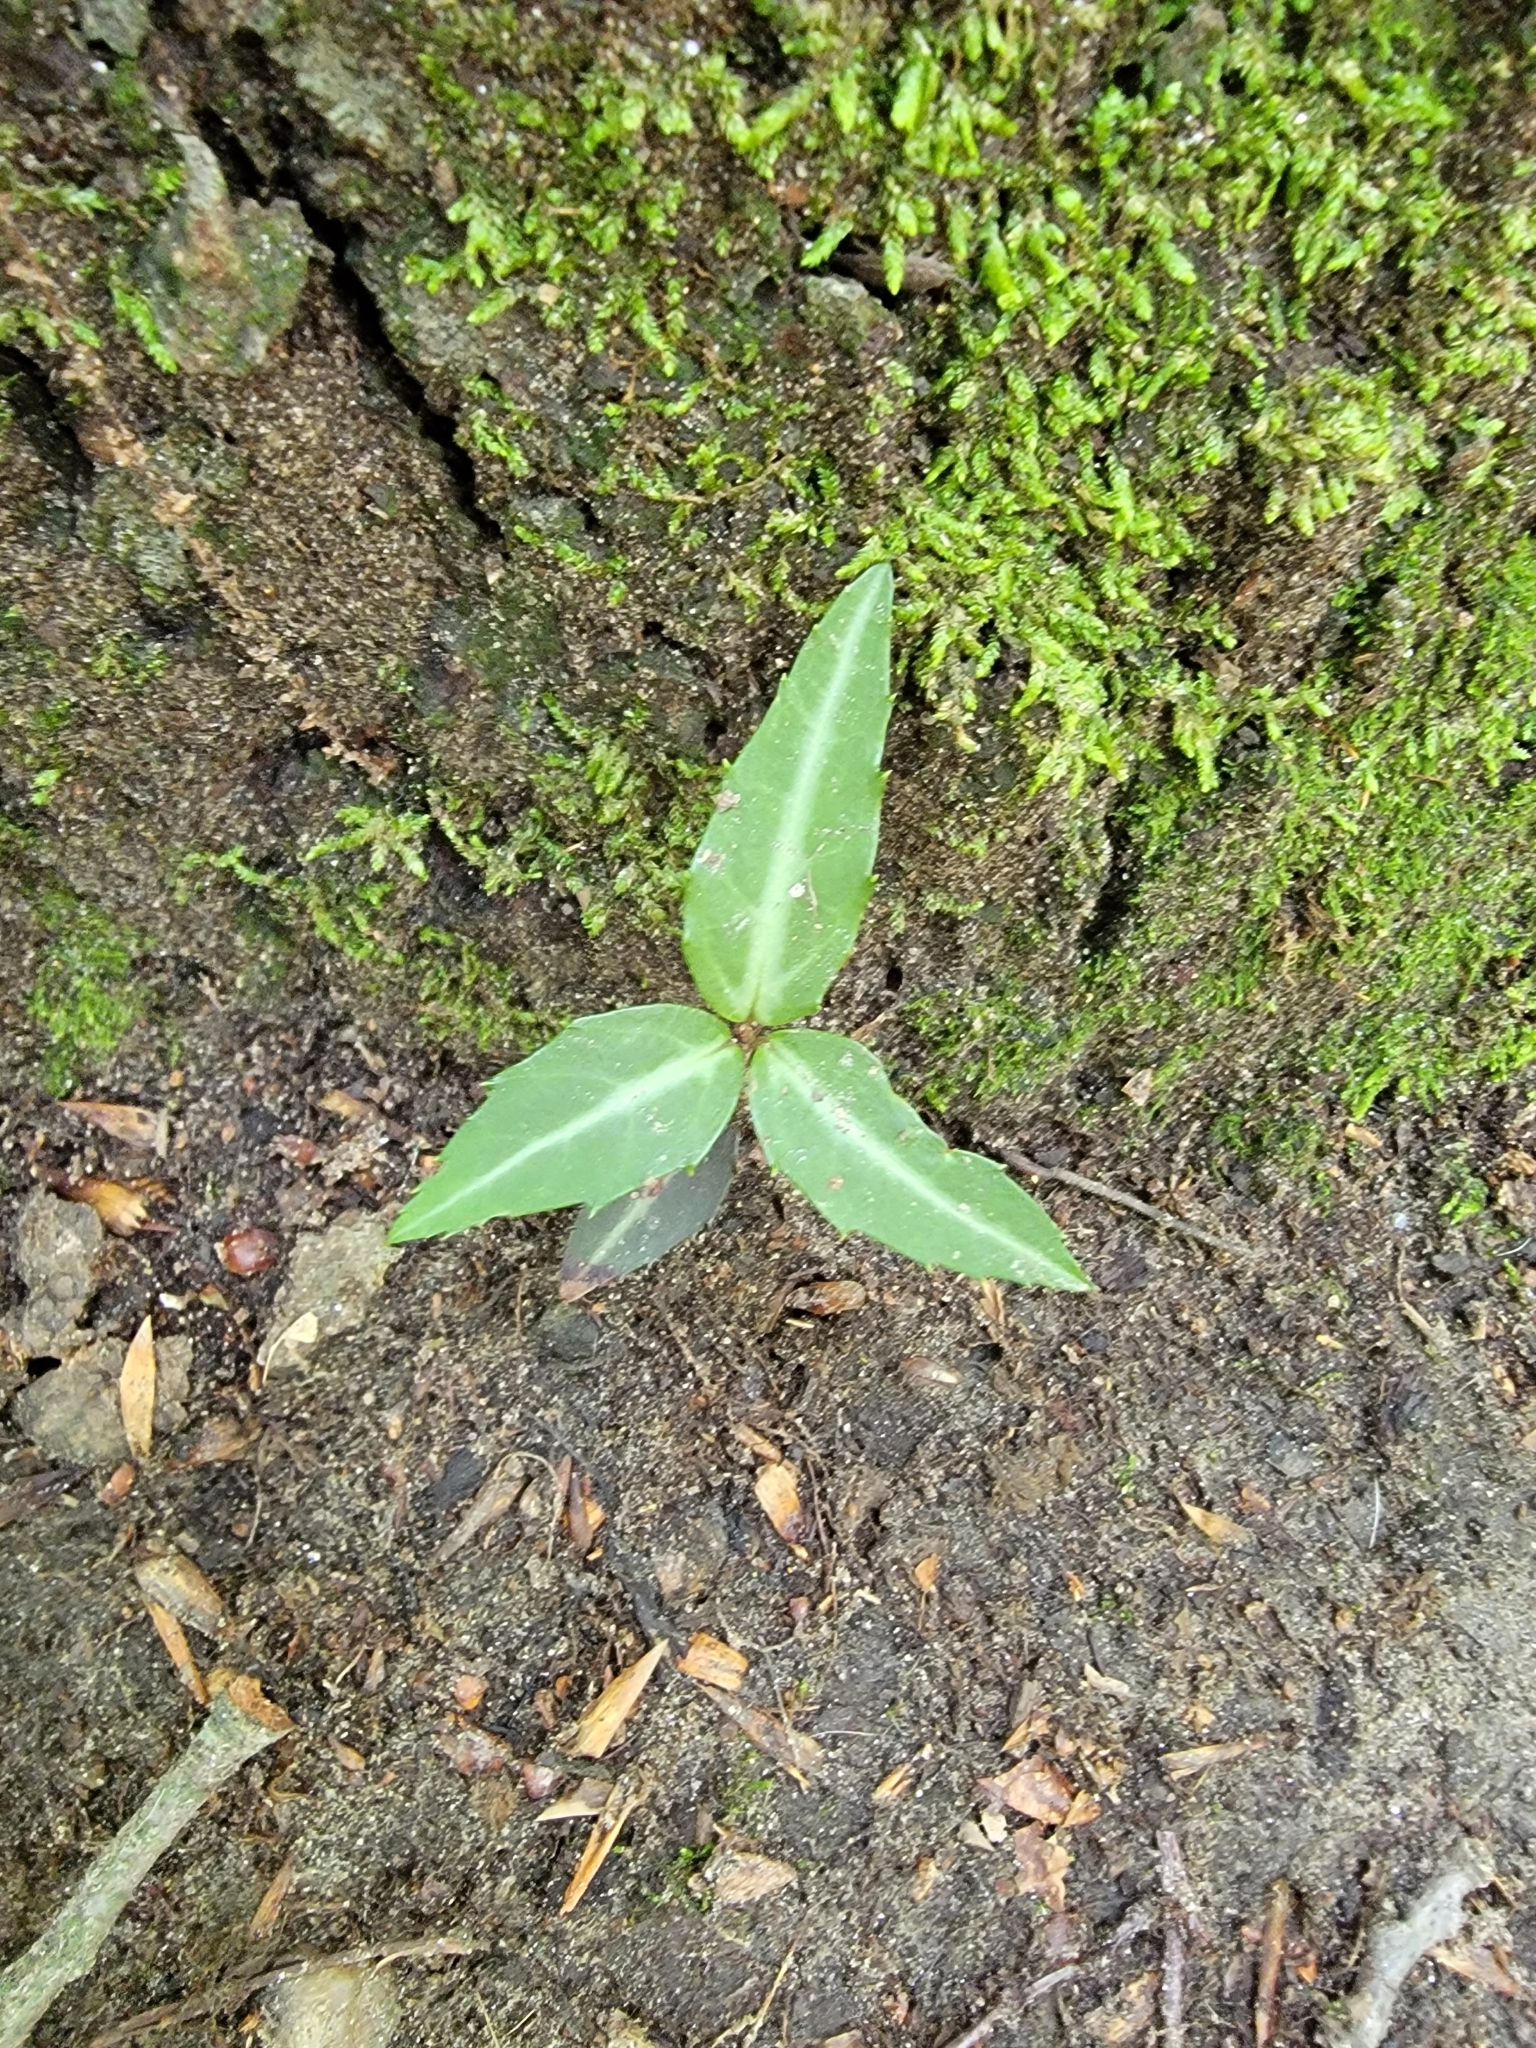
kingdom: Plantae
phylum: Tracheophyta
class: Magnoliopsida
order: Ericales
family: Ericaceae
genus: Chimaphila
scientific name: Chimaphila maculata
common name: Spotted pipsissewa
